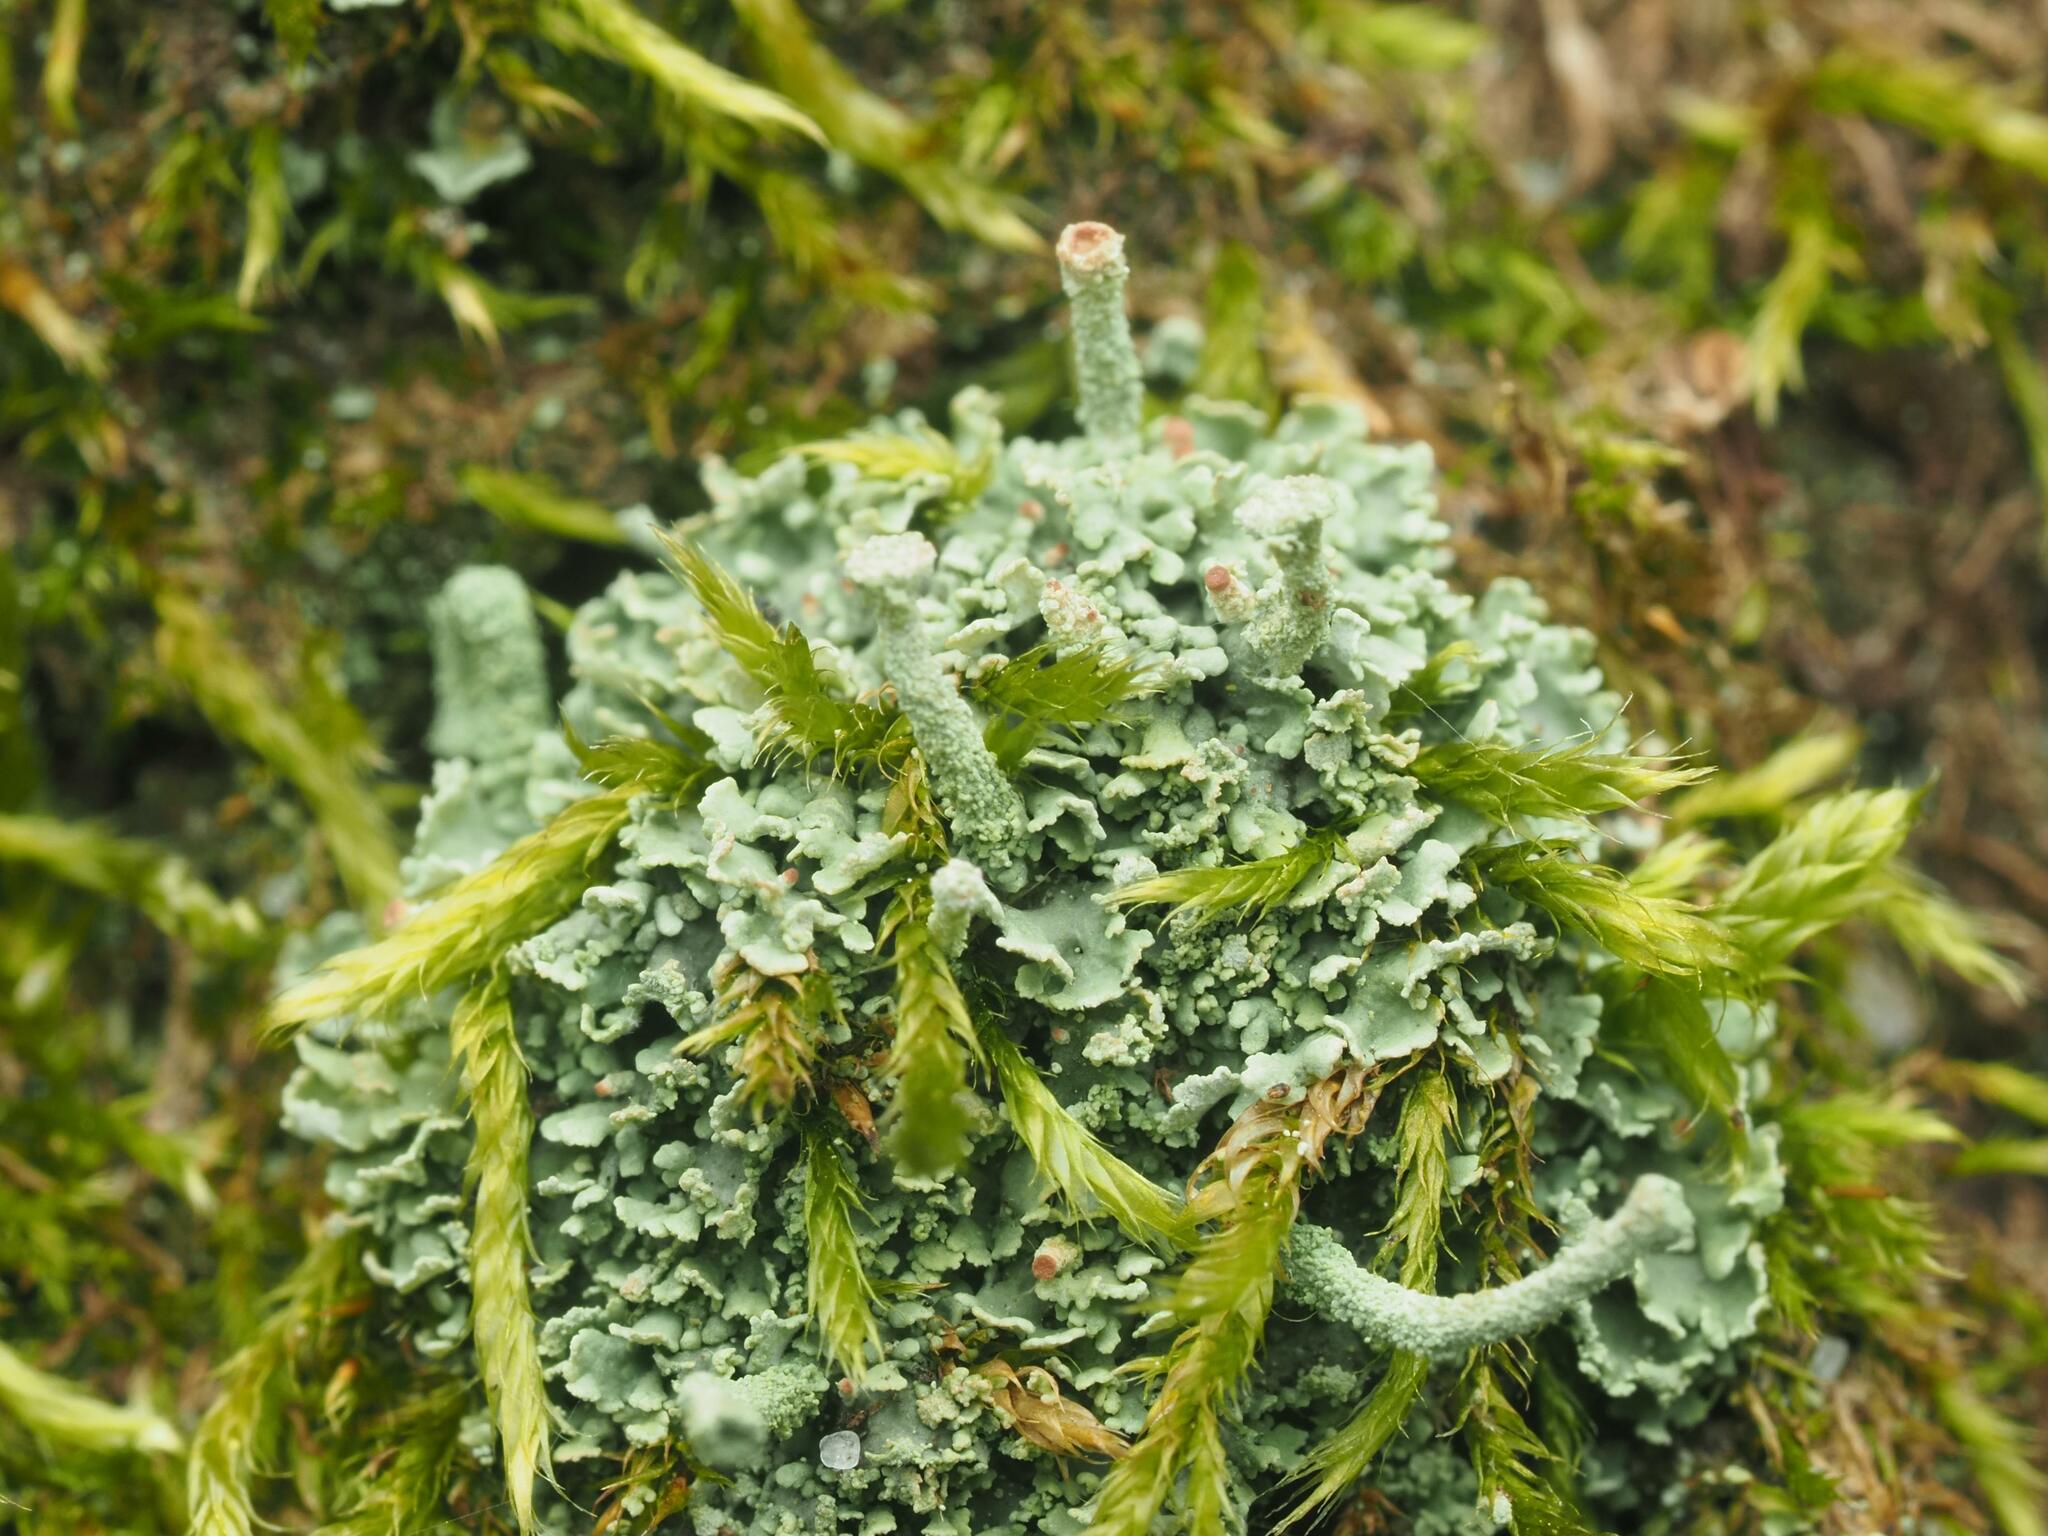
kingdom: Fungi
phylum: Ascomycota
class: Lecanoromycetes
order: Lecanorales
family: Cladoniaceae
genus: Cladonia
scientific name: Cladonia fimbriata
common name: Powdered trumpet lichen
